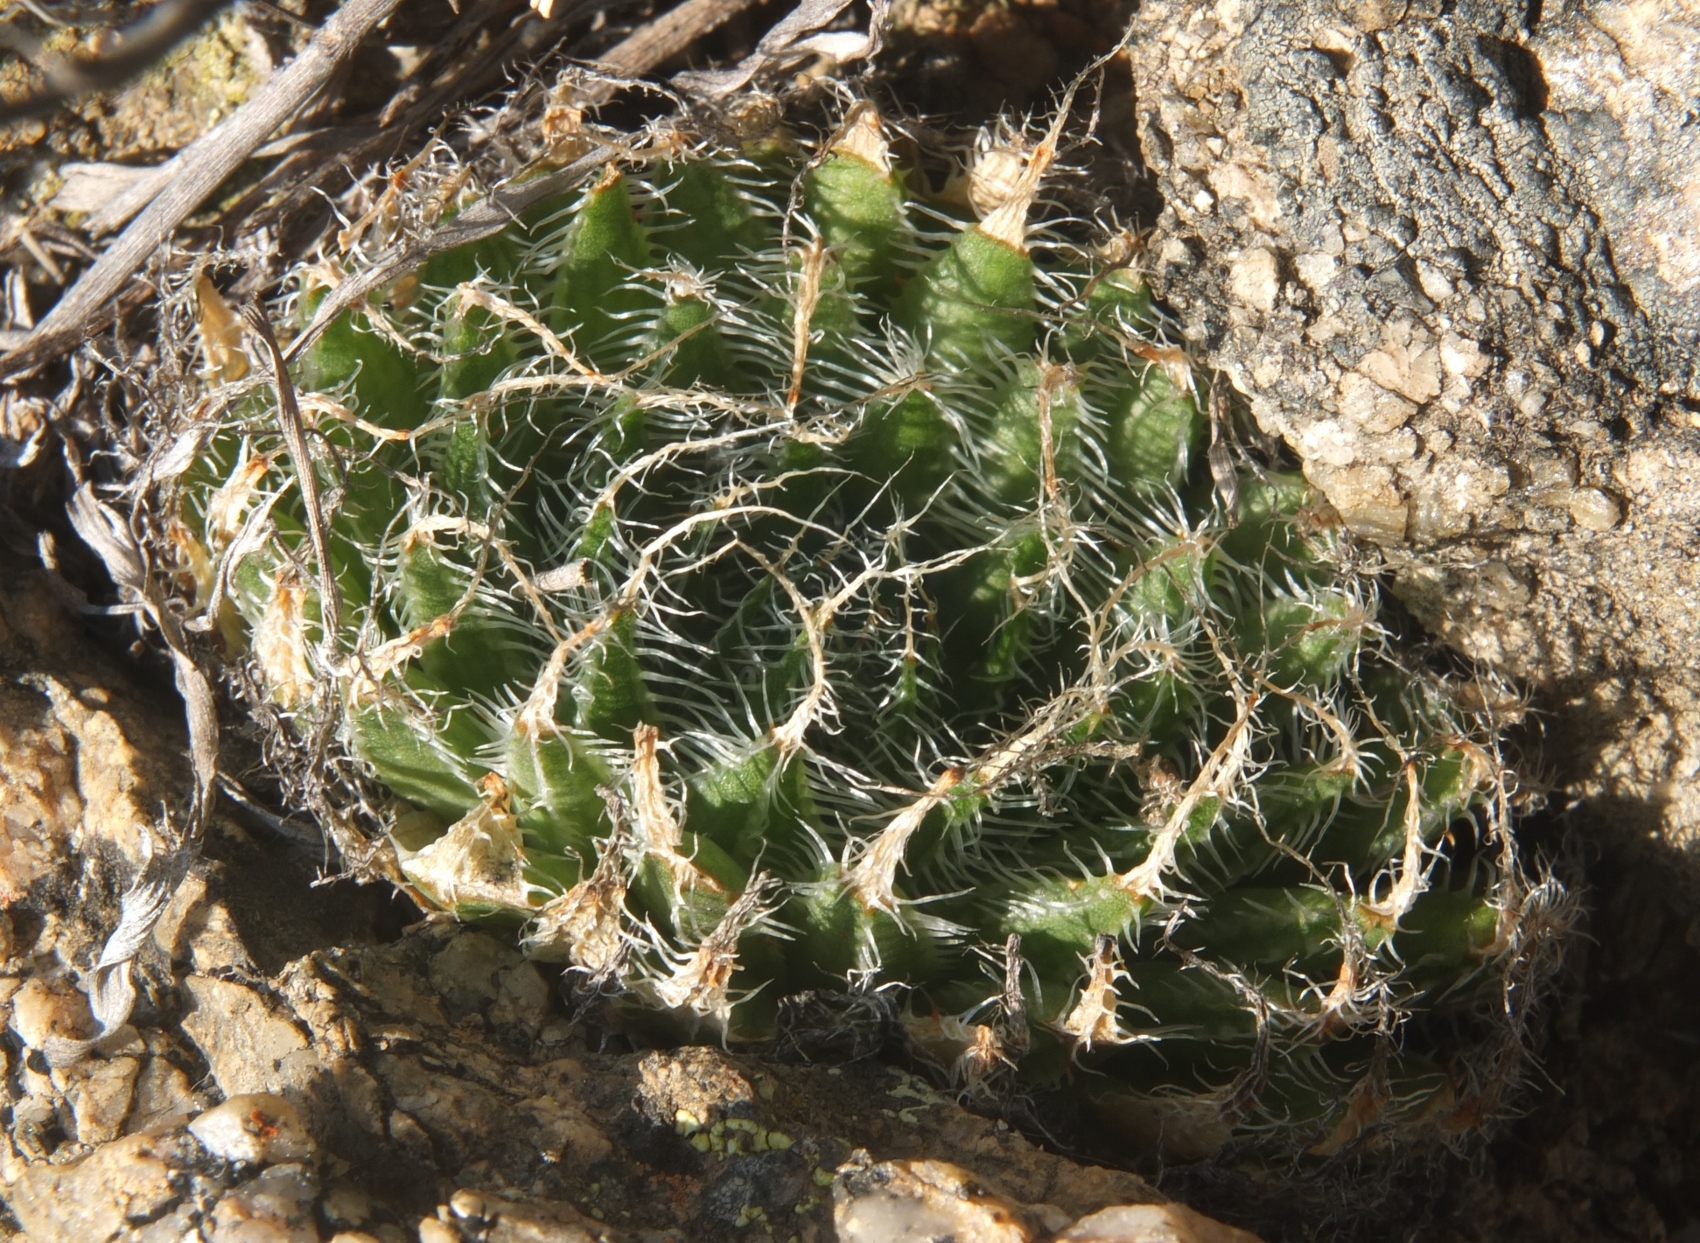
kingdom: Plantae
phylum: Tracheophyta
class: Liliopsida
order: Asparagales
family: Asphodelaceae
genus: Haworthia
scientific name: Haworthia arachnoidea
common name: Cobweb-aloe
